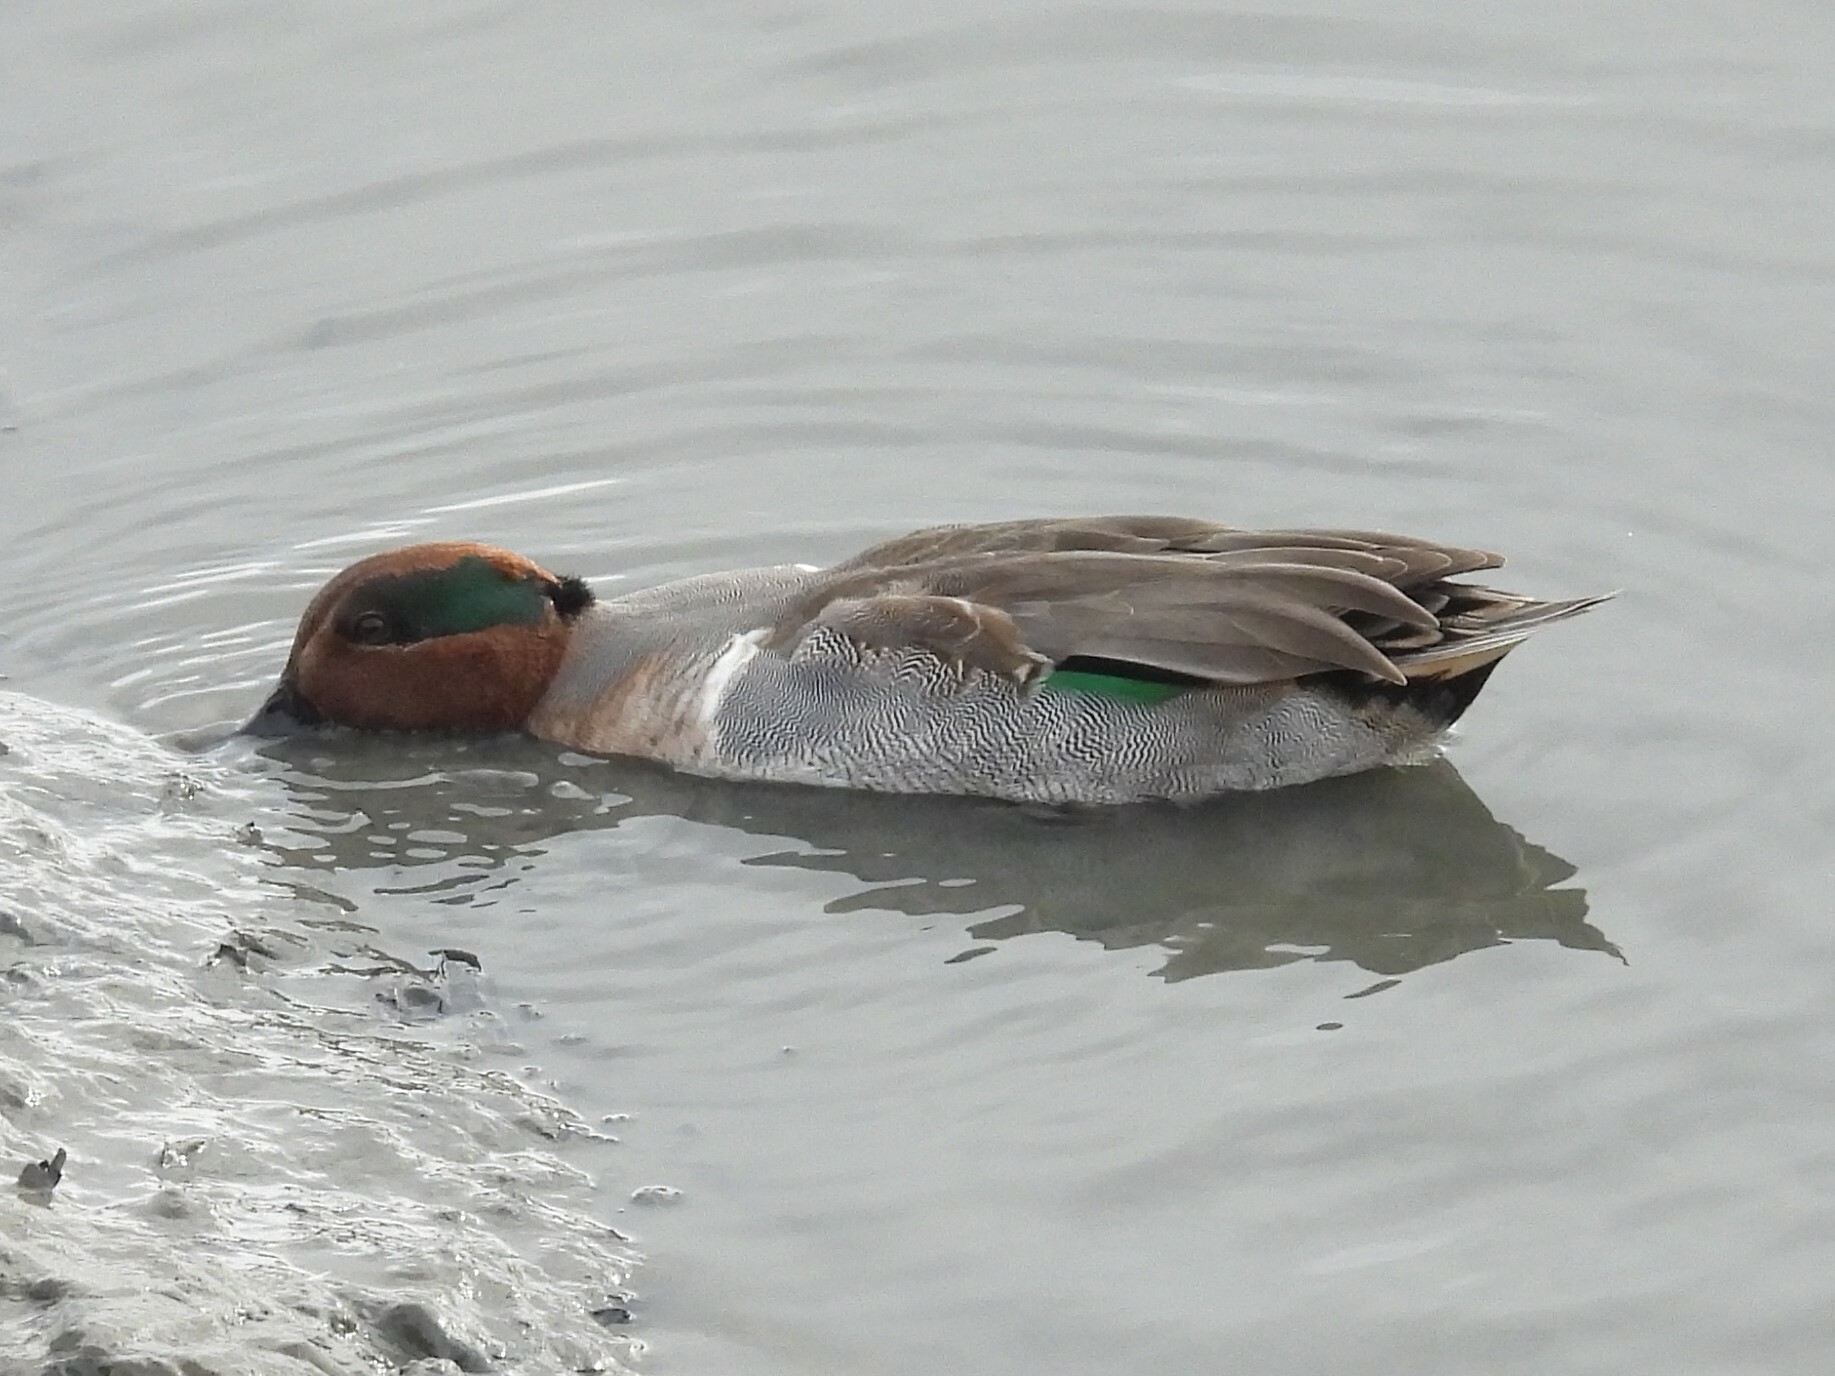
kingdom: Animalia
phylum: Chordata
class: Aves
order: Anseriformes
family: Anatidae
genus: Anas
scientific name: Anas crecca
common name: Eurasian teal
